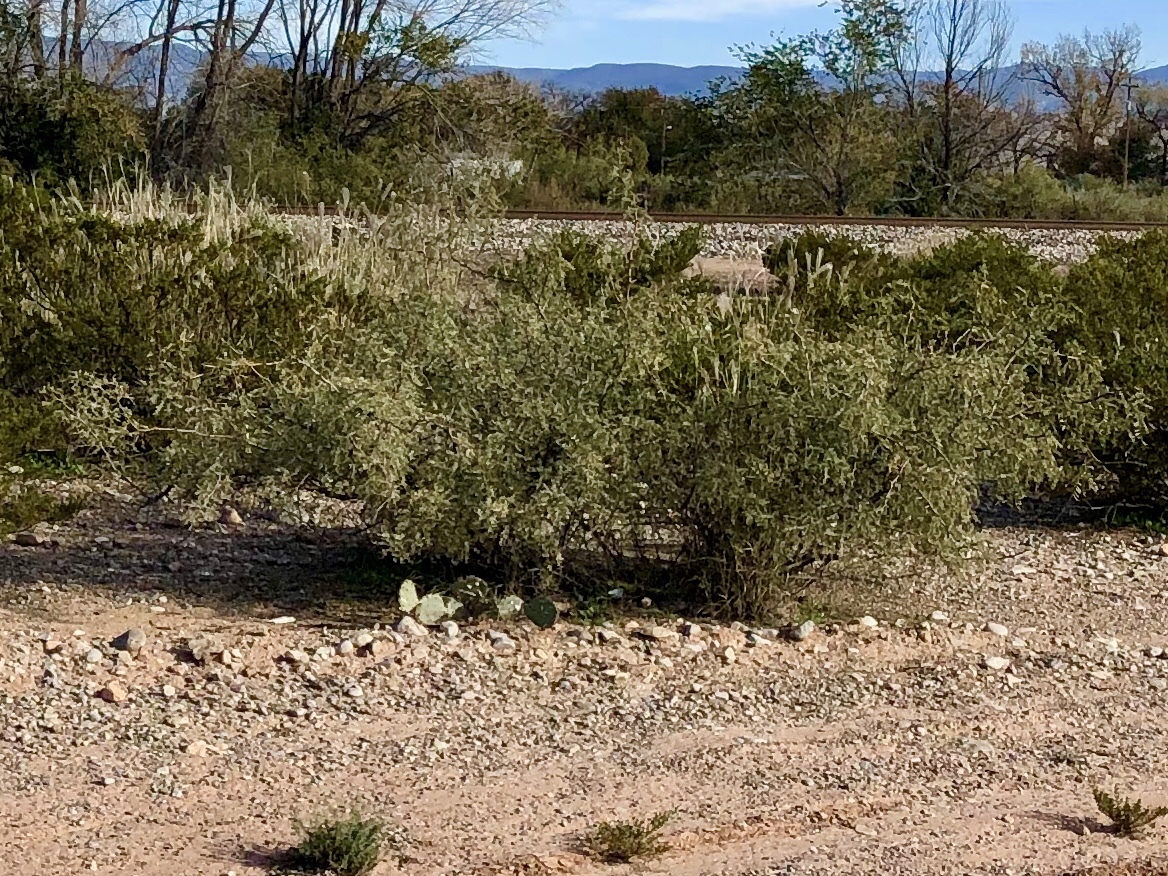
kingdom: Plantae
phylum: Tracheophyta
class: Magnoliopsida
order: Caryophyllales
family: Amaranthaceae
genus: Atriplex
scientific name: Atriplex canescens
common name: Four-wing saltbush
